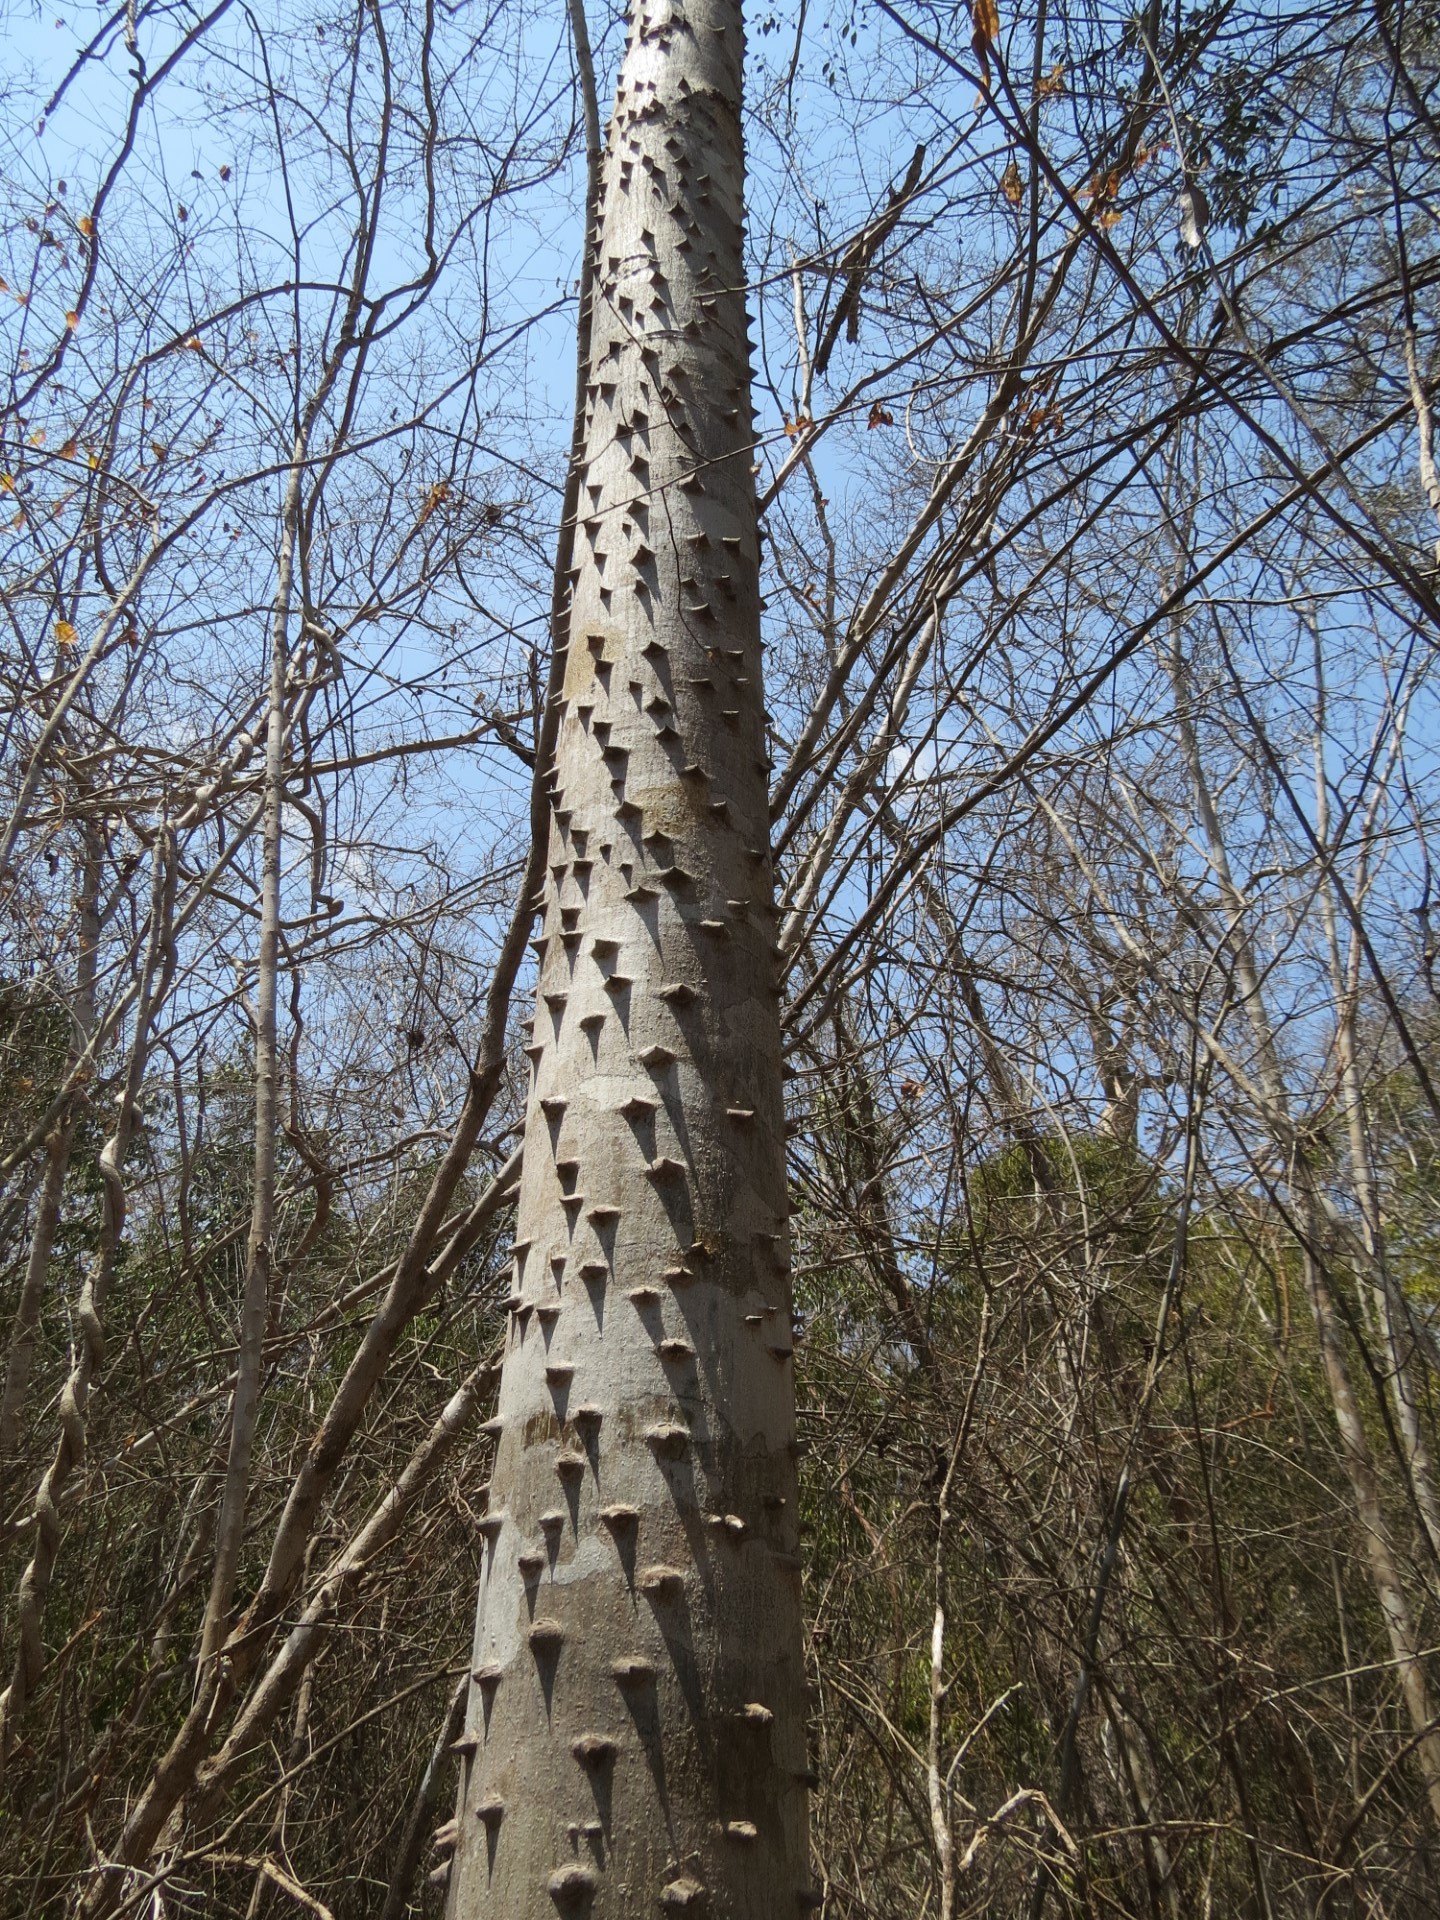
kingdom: Plantae
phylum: Tracheophyta
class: Magnoliopsida
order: Sapindales
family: Rutaceae
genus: Zanthoxylum
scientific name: Zanthoxylum tsihanimposa
